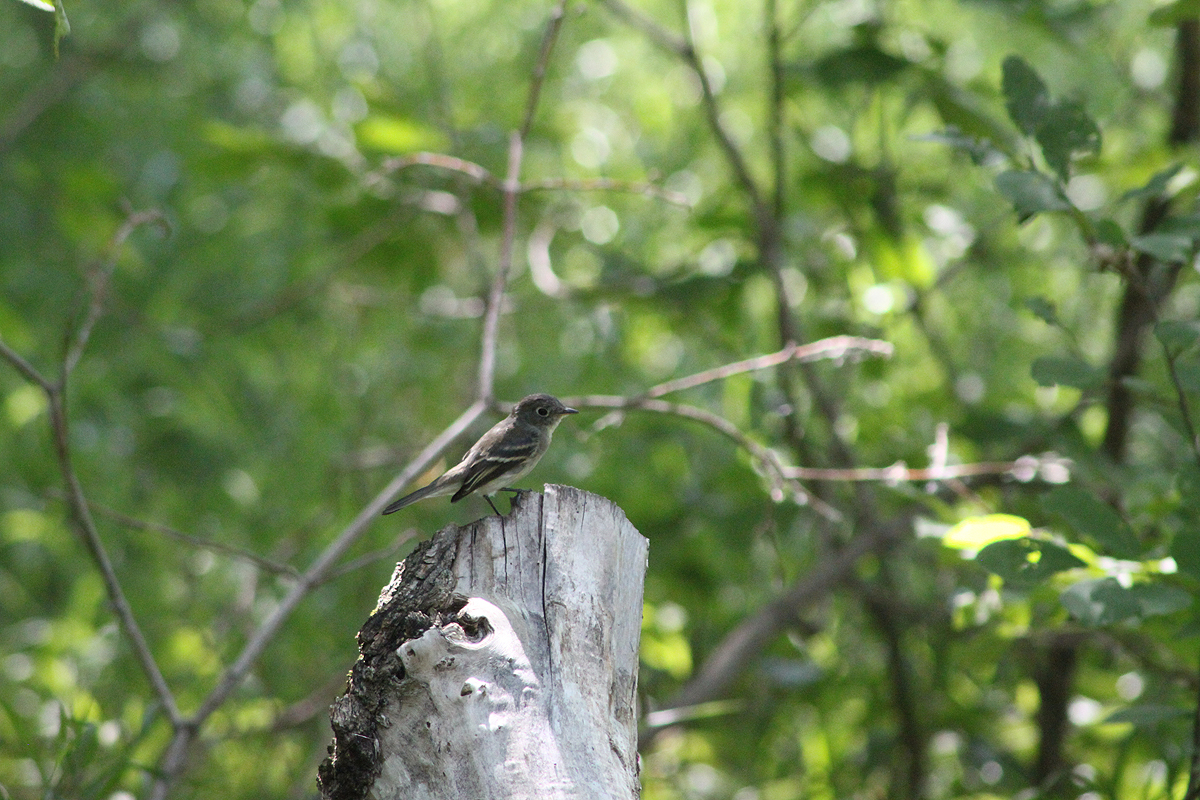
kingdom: Animalia
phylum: Chordata
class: Aves
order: Passeriformes
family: Tyrannidae
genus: Empidonax
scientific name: Empidonax minimus
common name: Least flycatcher
